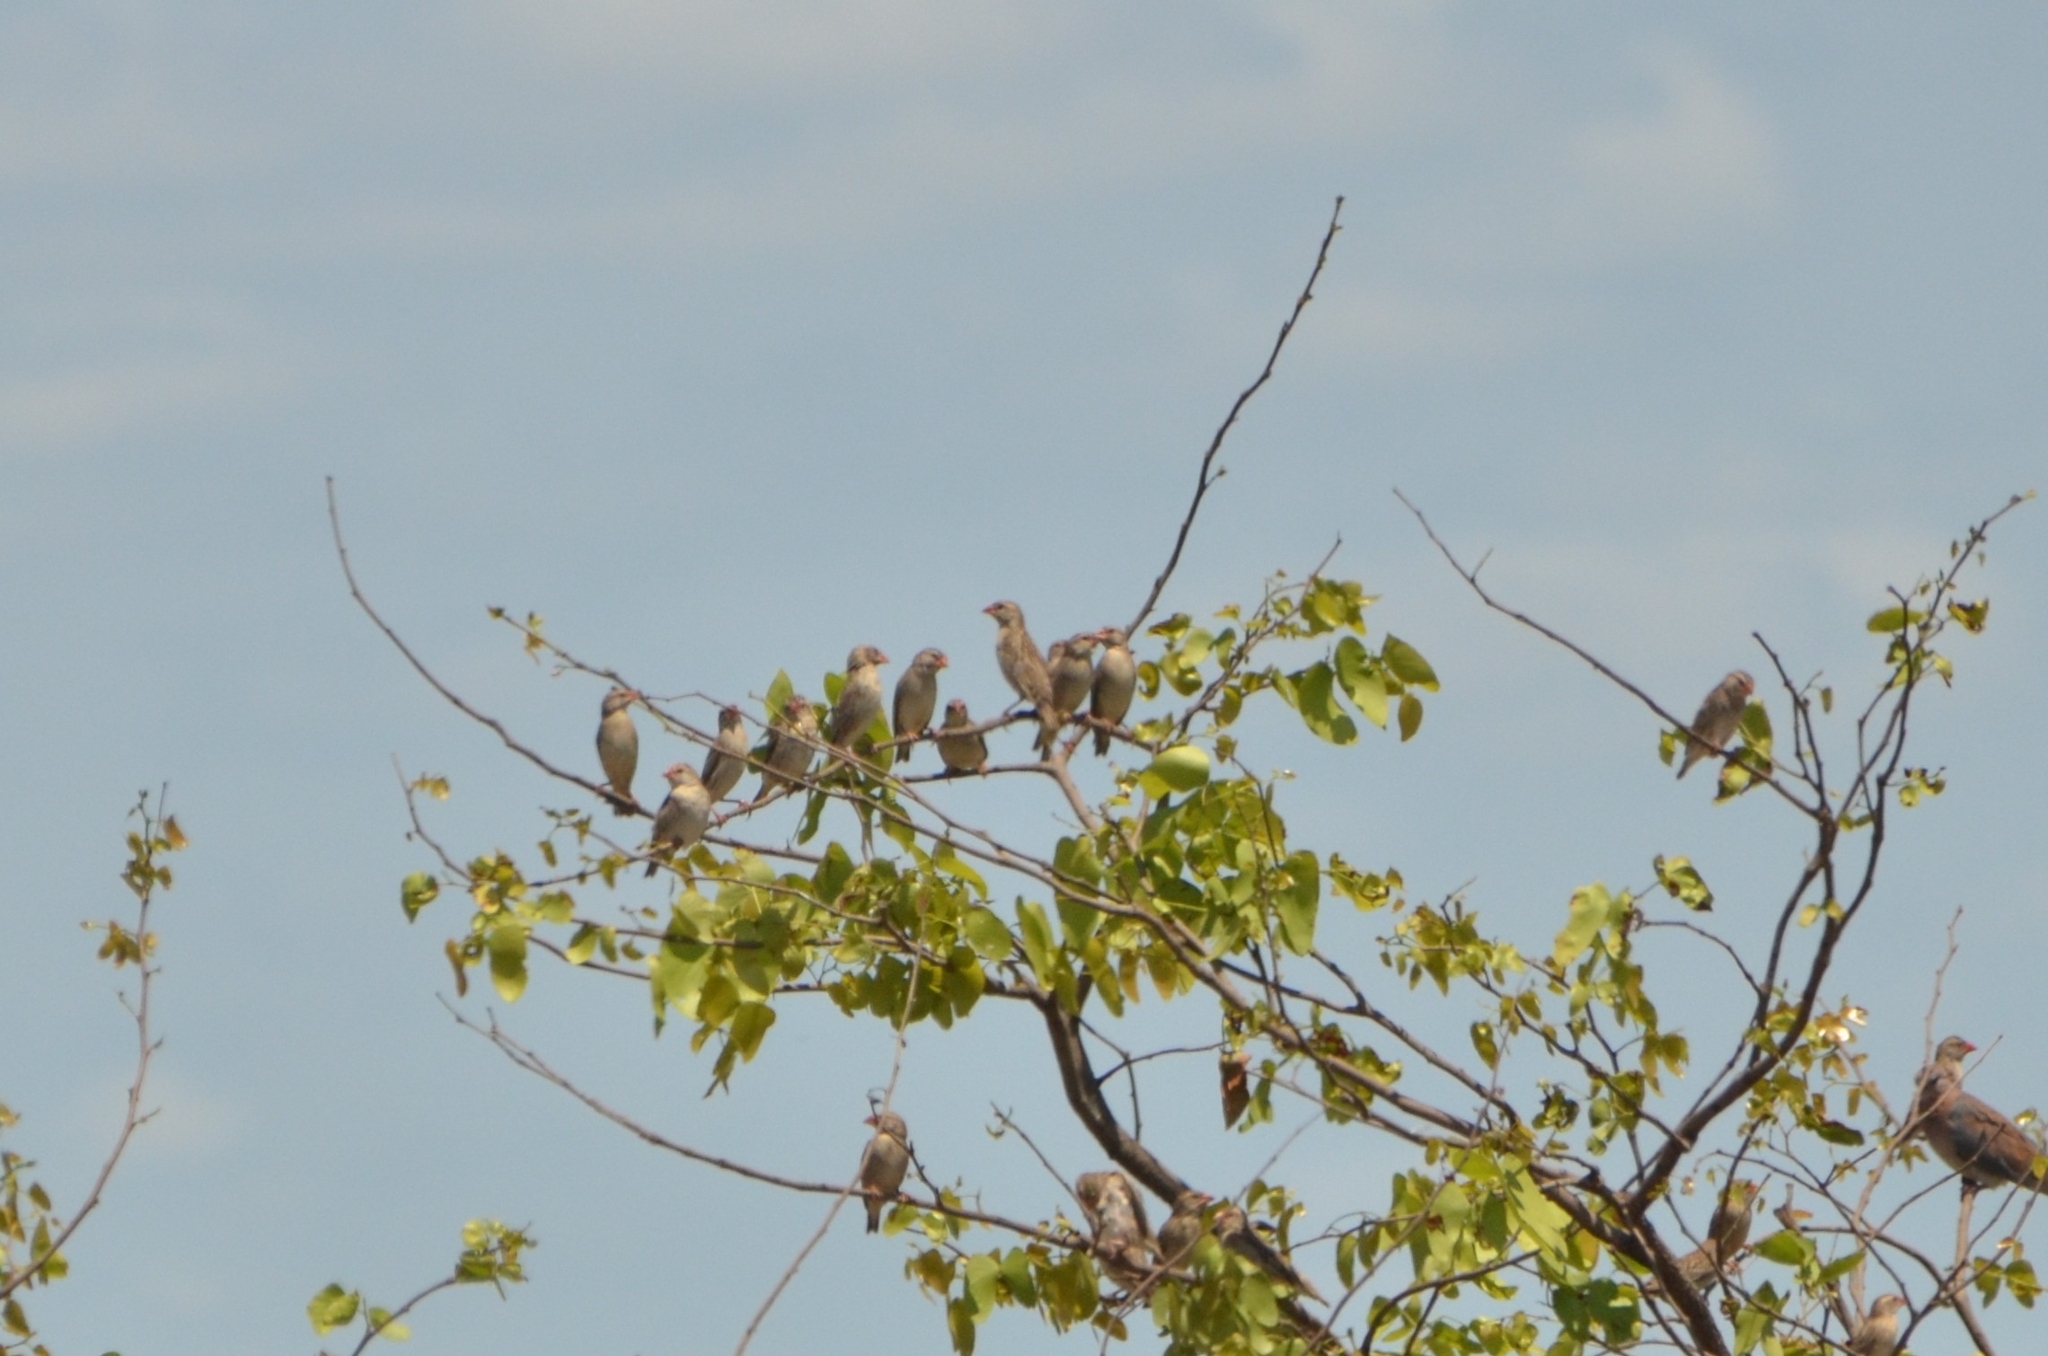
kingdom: Animalia
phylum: Chordata
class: Aves
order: Passeriformes
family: Ploceidae
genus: Quelea
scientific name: Quelea quelea
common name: Red-billed quelea
